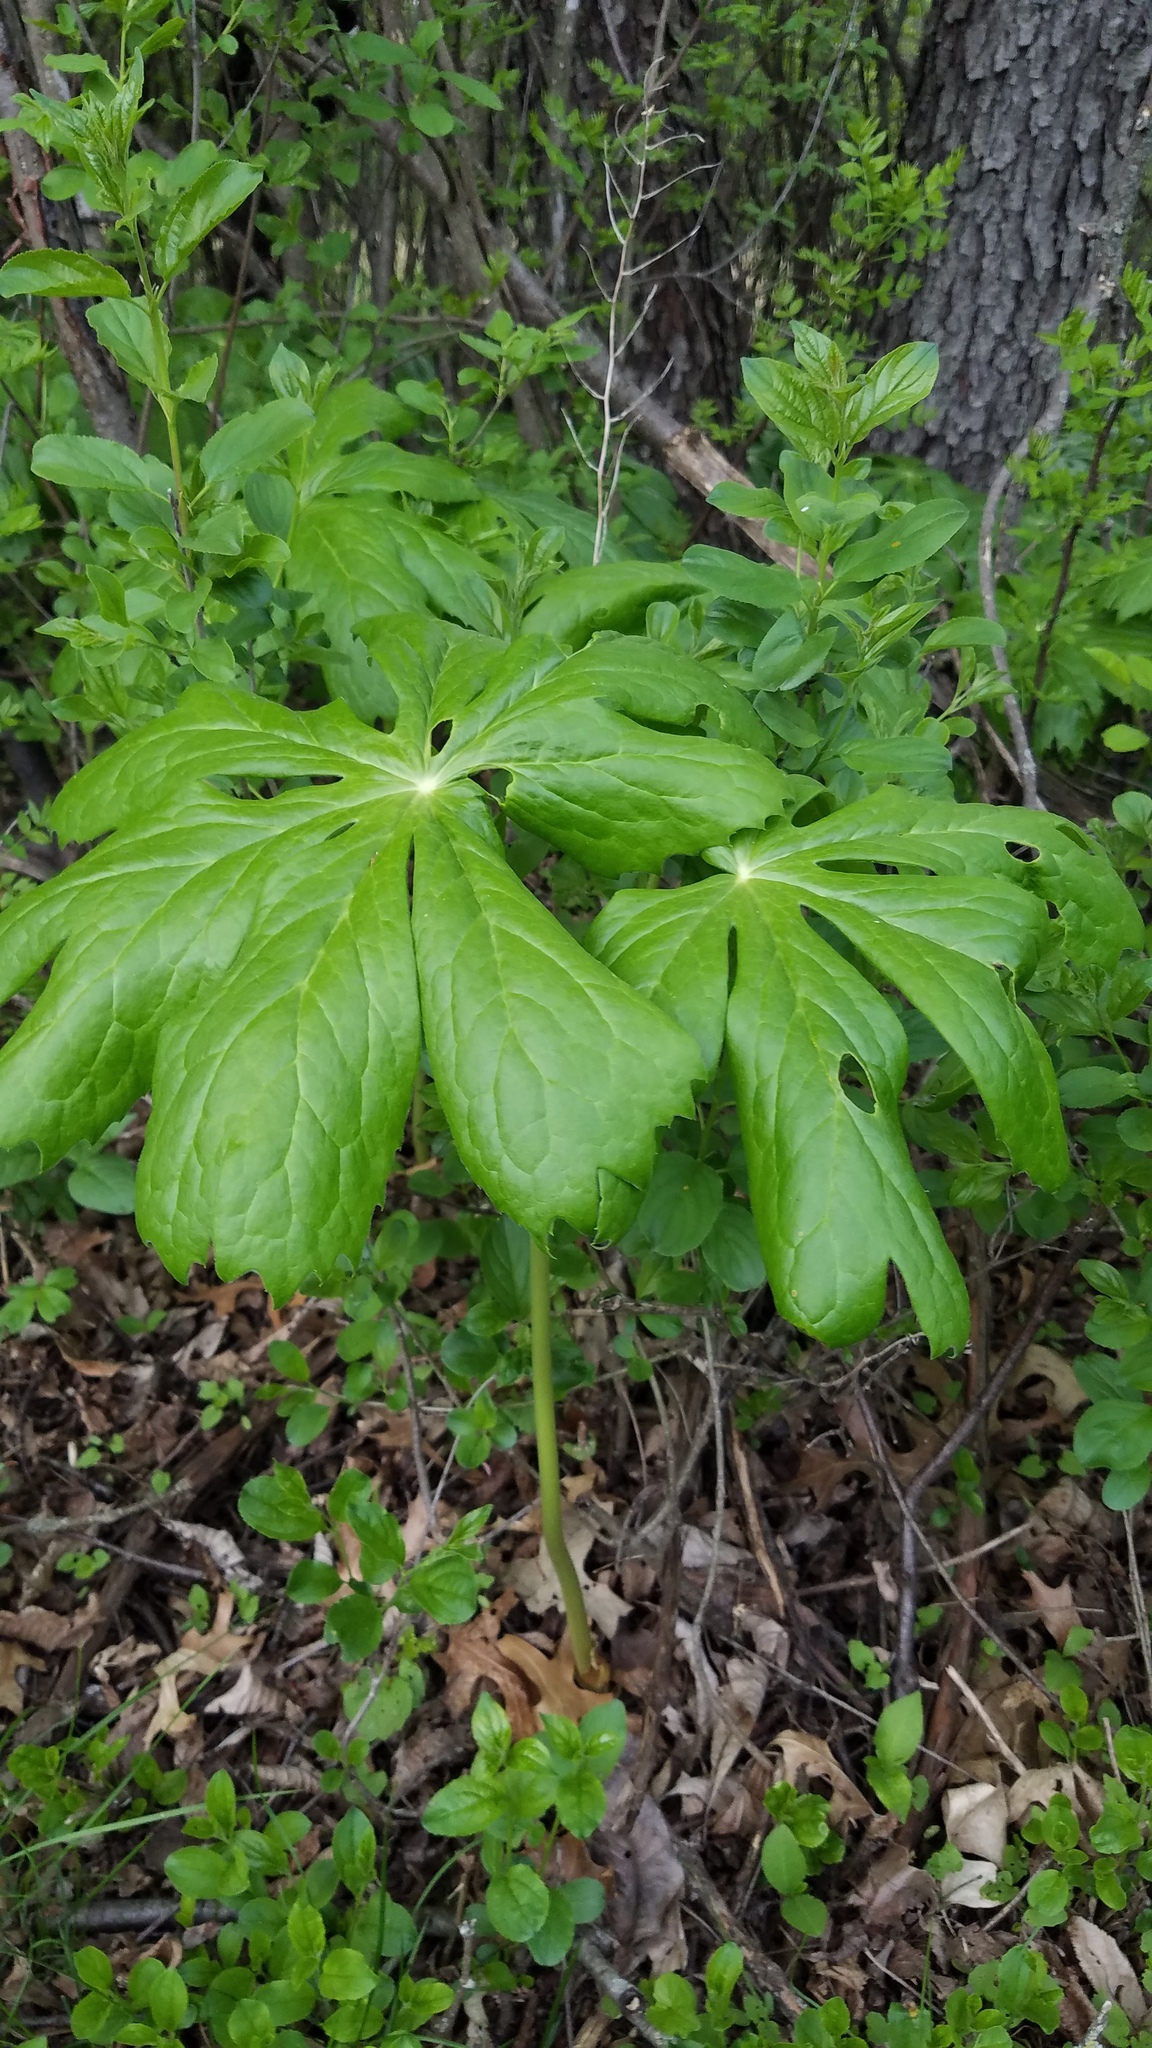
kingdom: Plantae
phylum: Tracheophyta
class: Magnoliopsida
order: Ranunculales
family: Berberidaceae
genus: Podophyllum
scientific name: Podophyllum peltatum
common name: Wild mandrake
